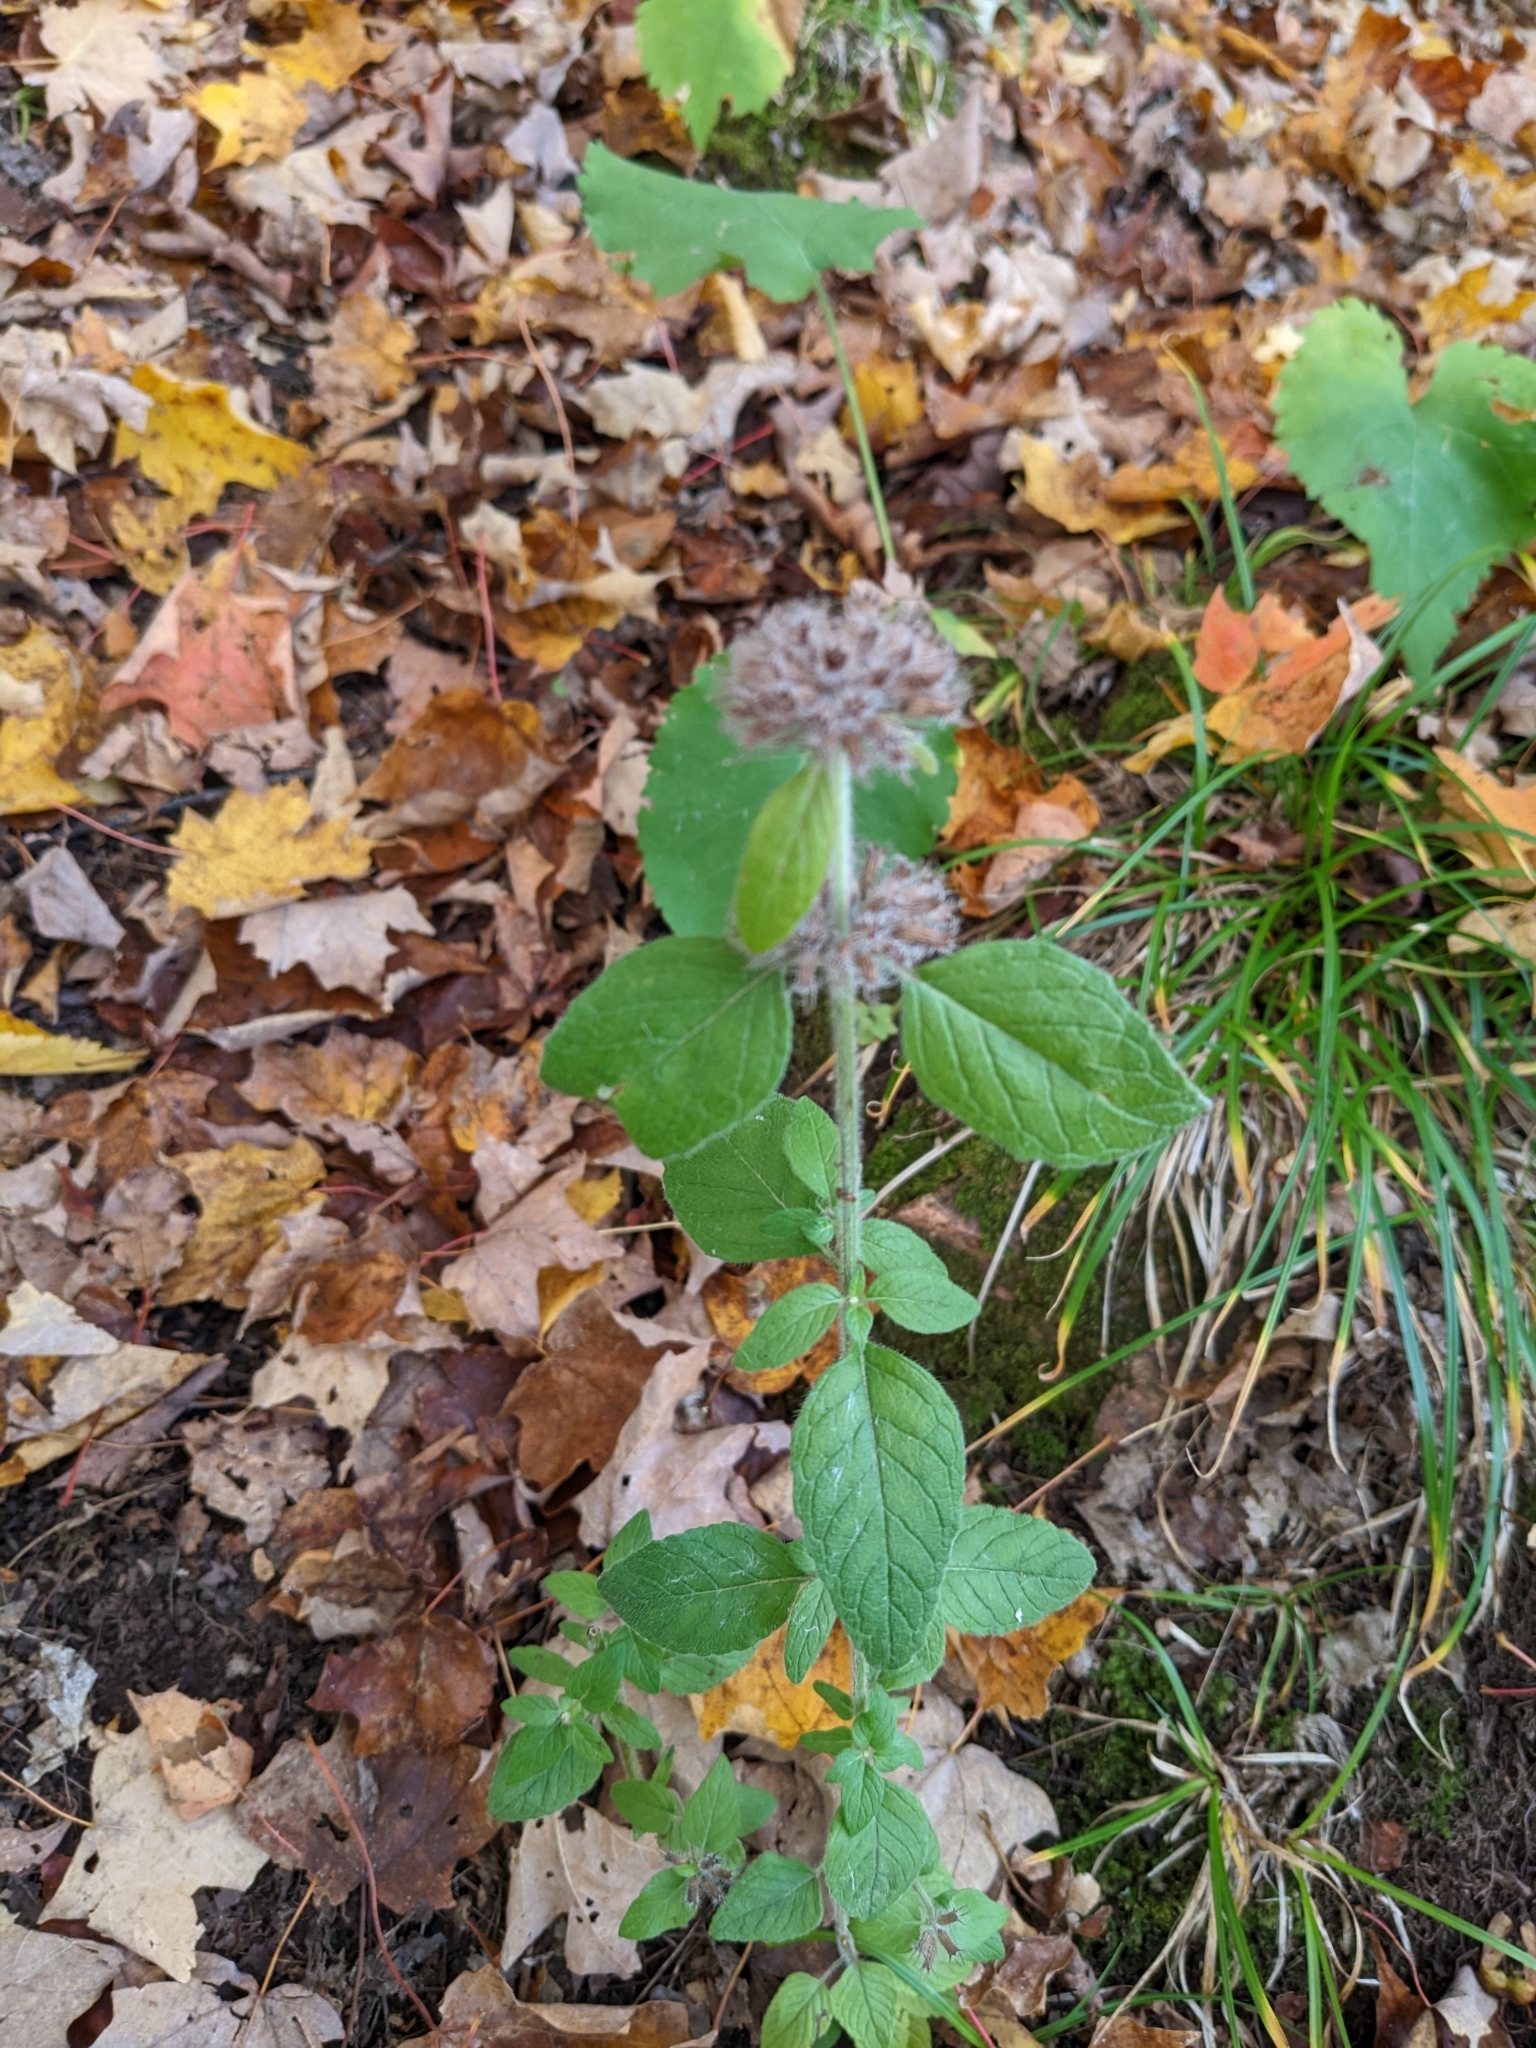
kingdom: Plantae
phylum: Tracheophyta
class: Magnoliopsida
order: Lamiales
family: Lamiaceae
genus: Clinopodium
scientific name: Clinopodium vulgare
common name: Wild basil
